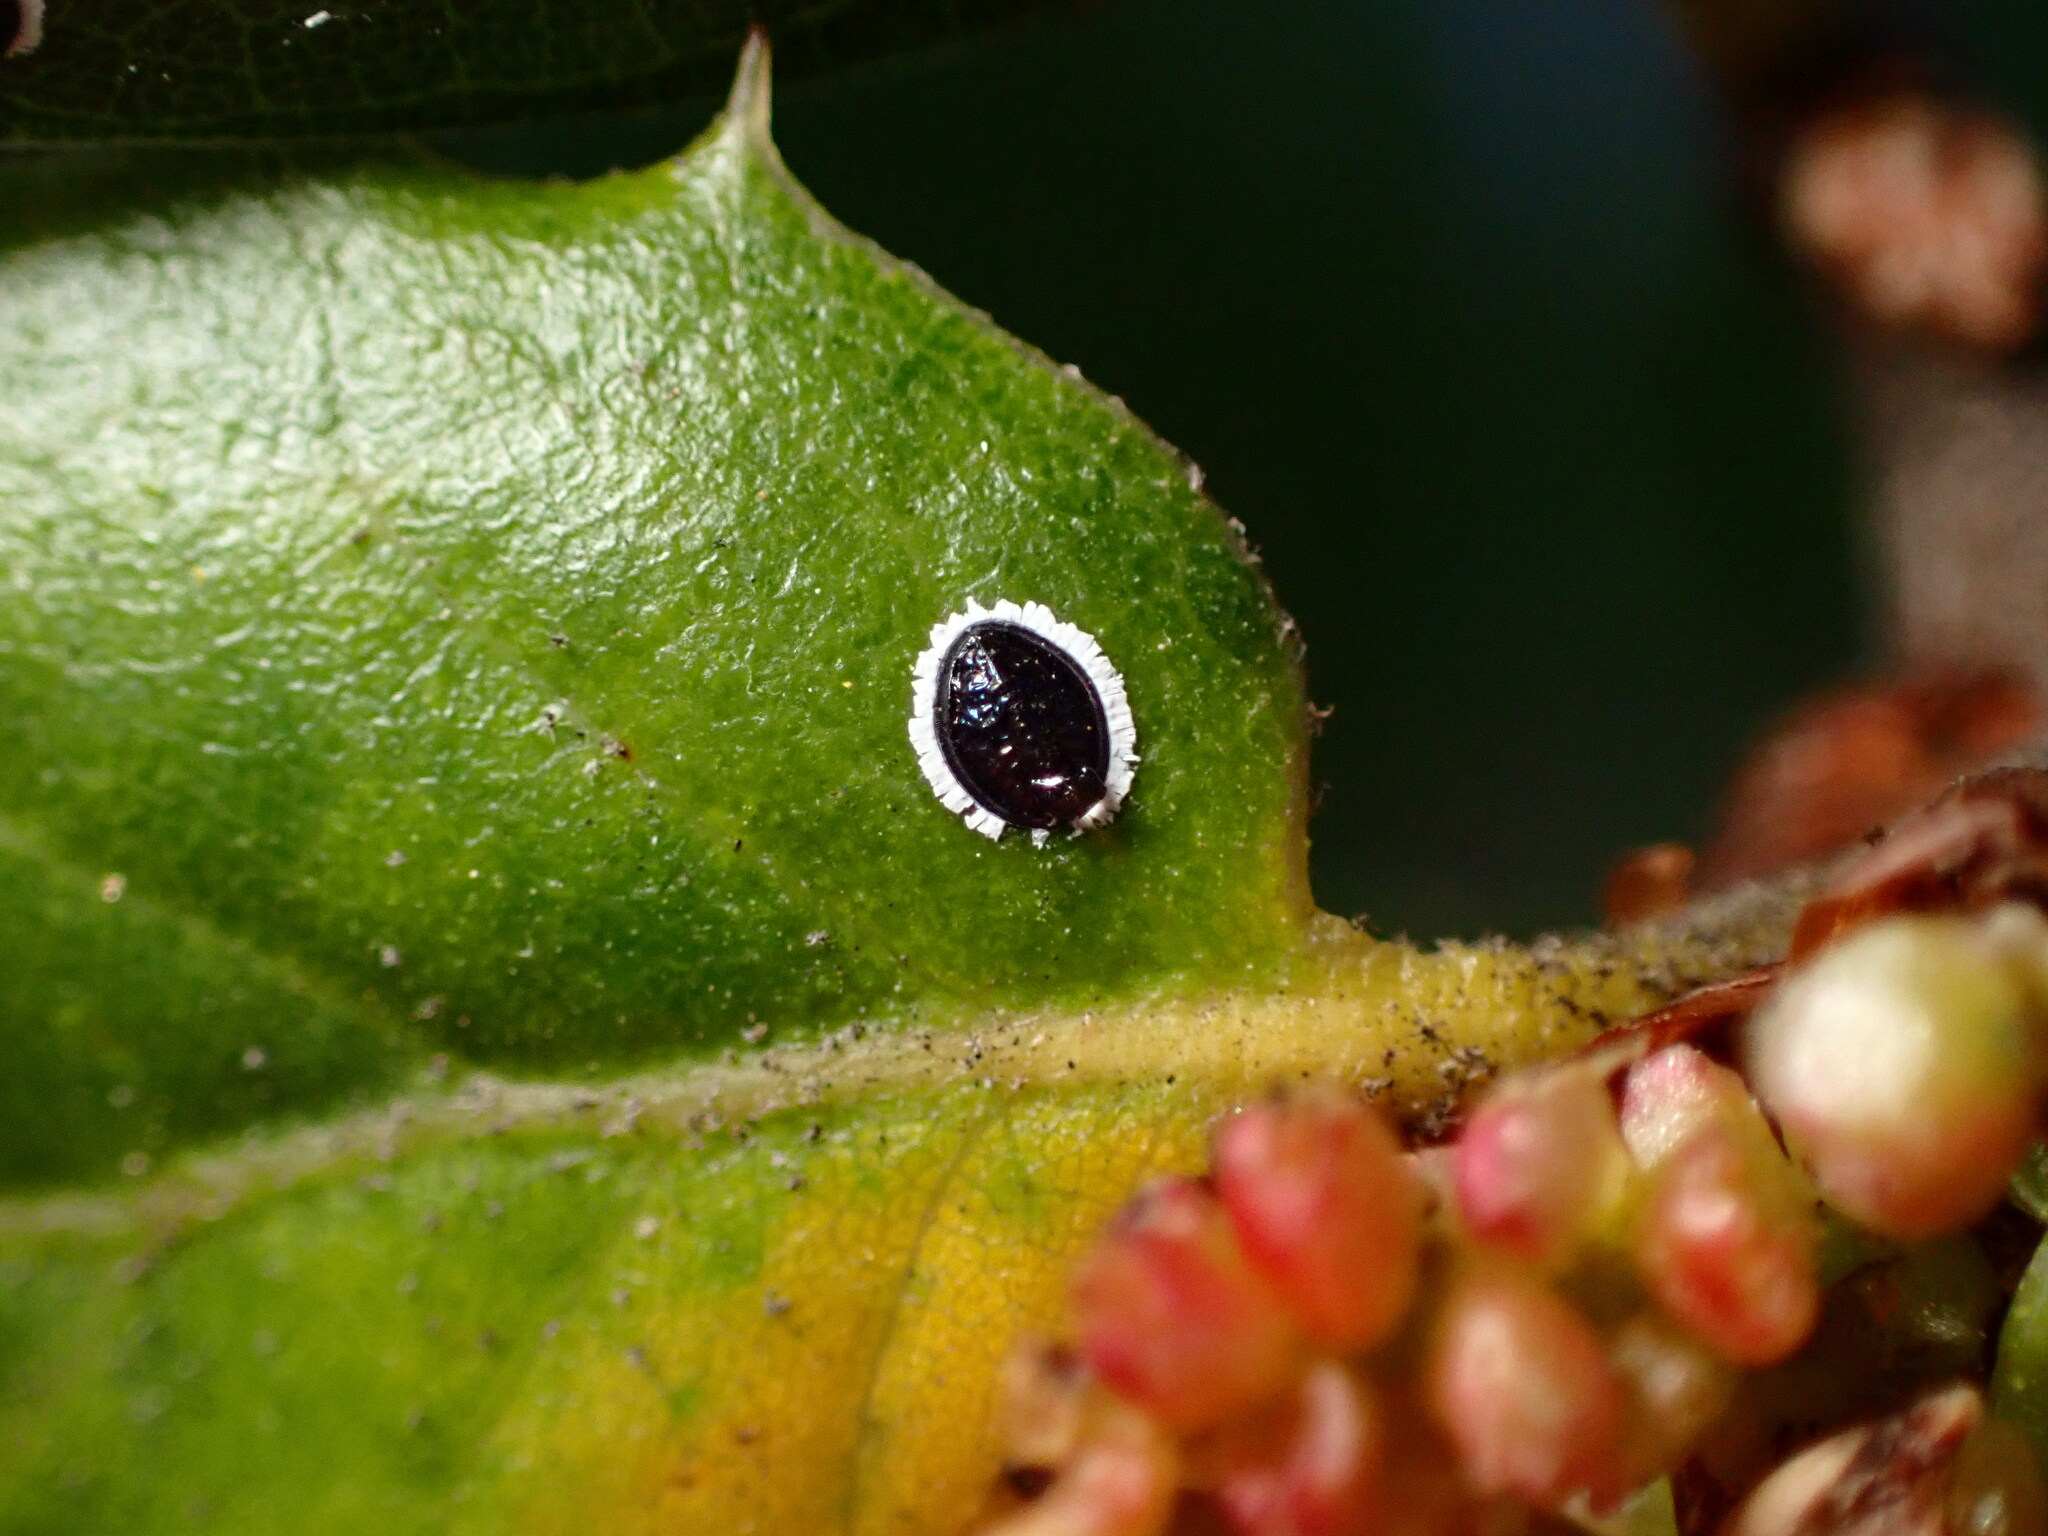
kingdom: Animalia
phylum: Arthropoda
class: Insecta
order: Hemiptera
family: Aleyrodidae
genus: Tetraleurodes
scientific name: Tetraleurodes perileuca
